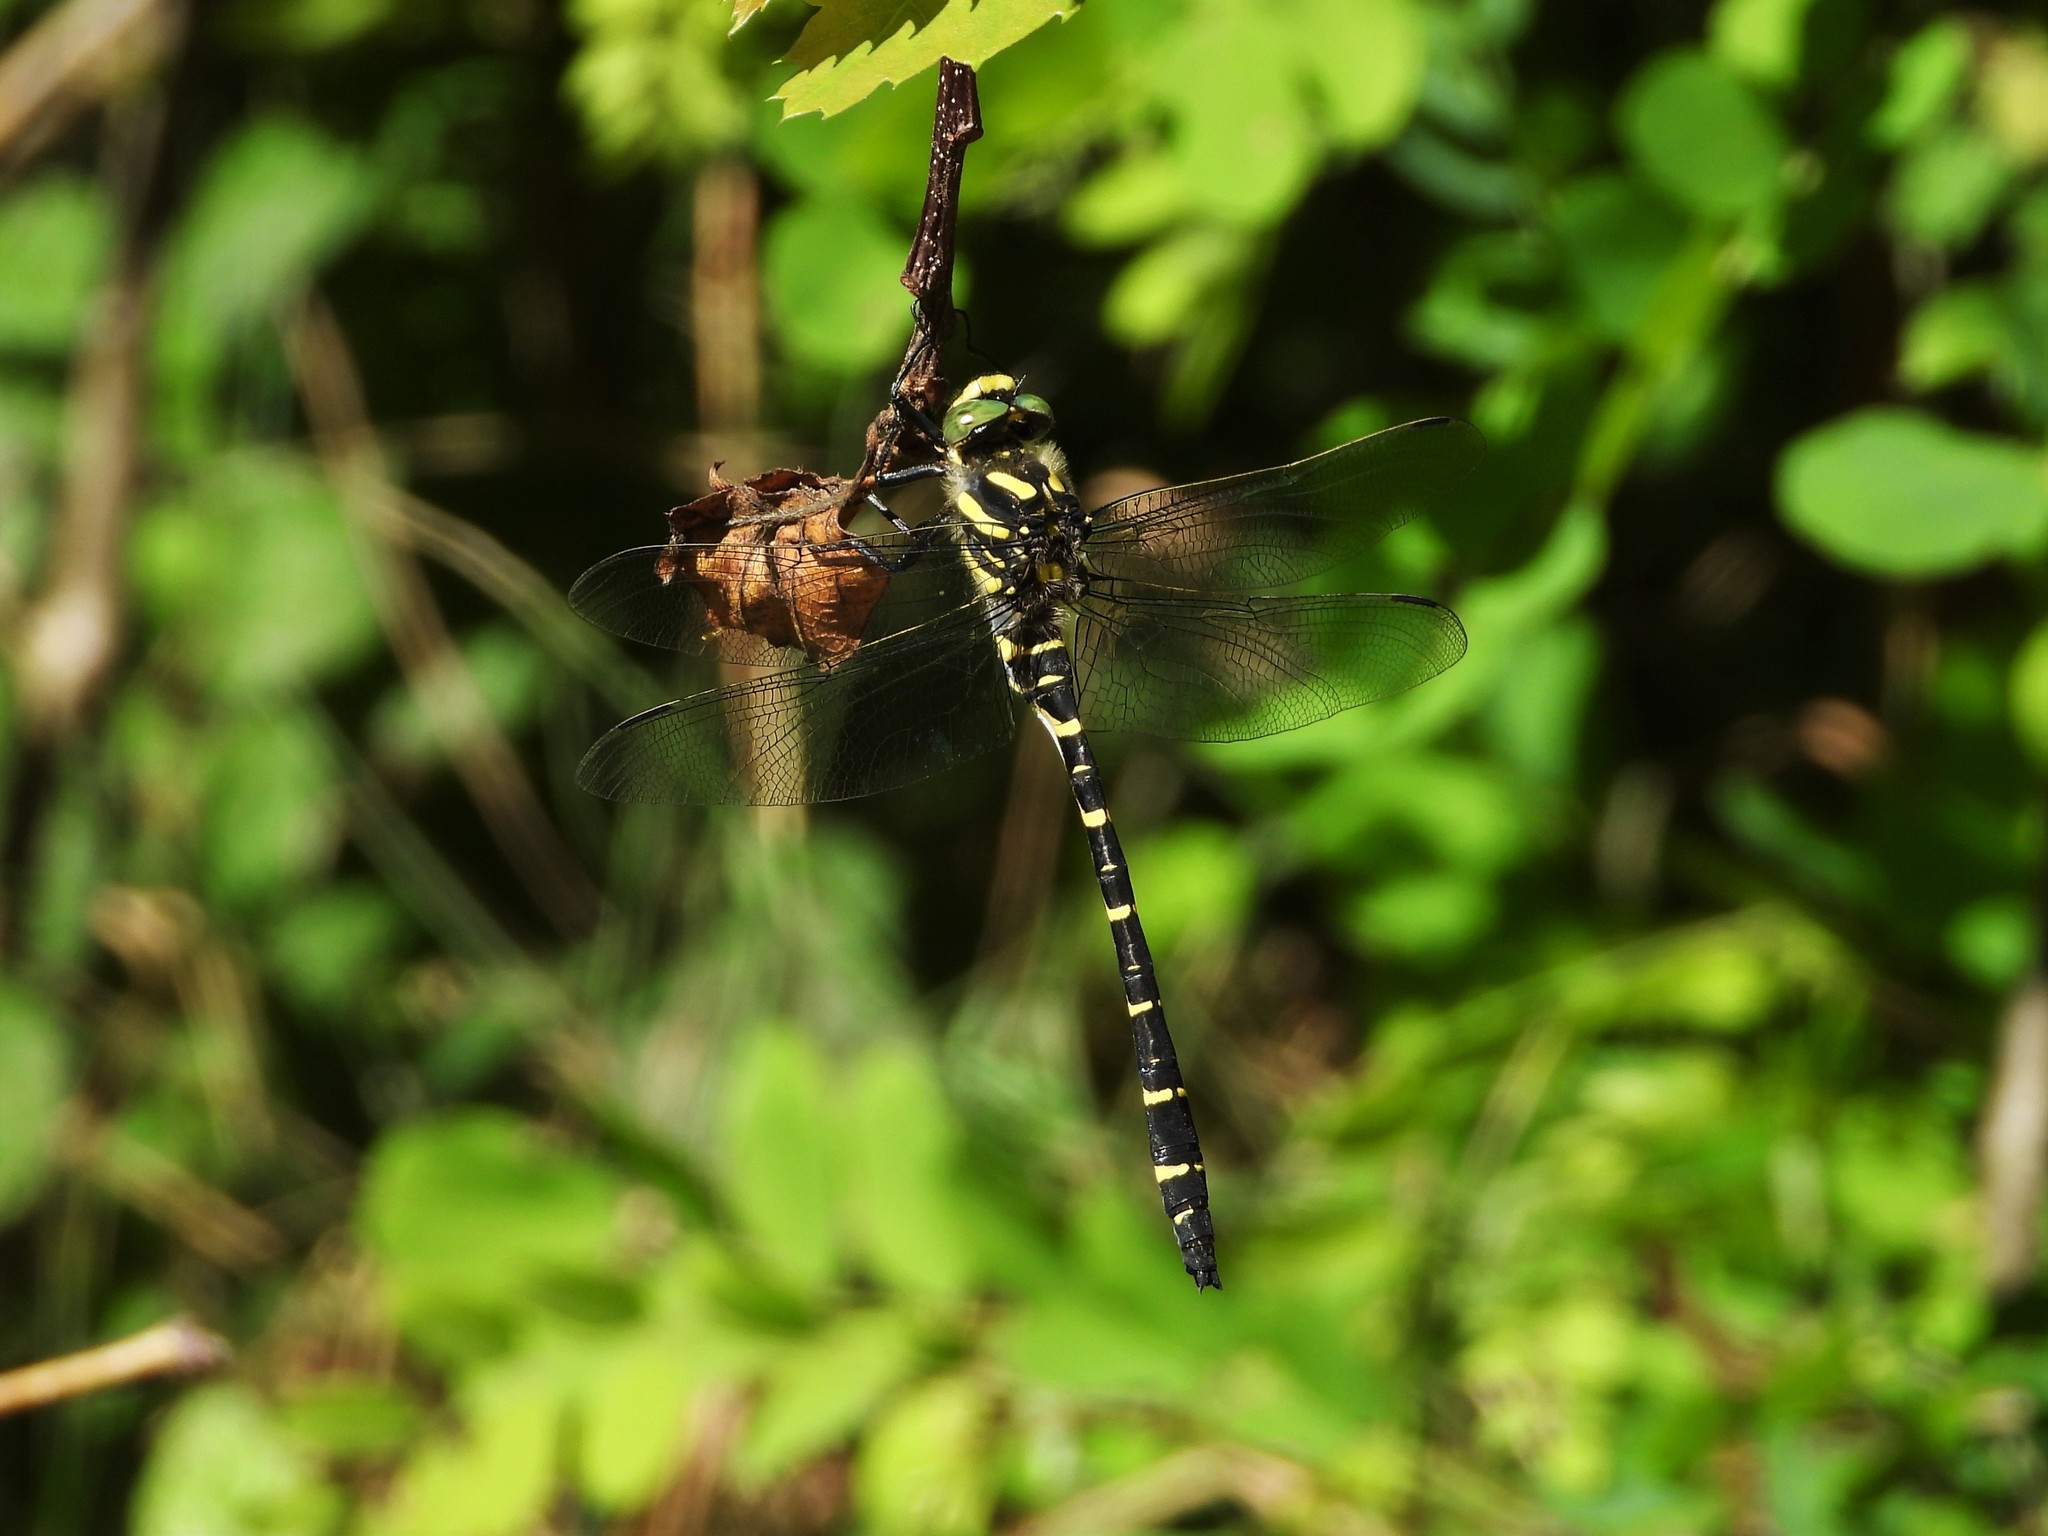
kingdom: Animalia
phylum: Arthropoda
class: Insecta
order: Odonata
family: Cordulegastridae
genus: Cordulegaster
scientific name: Cordulegaster bidentata
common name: Sombre goldenring
